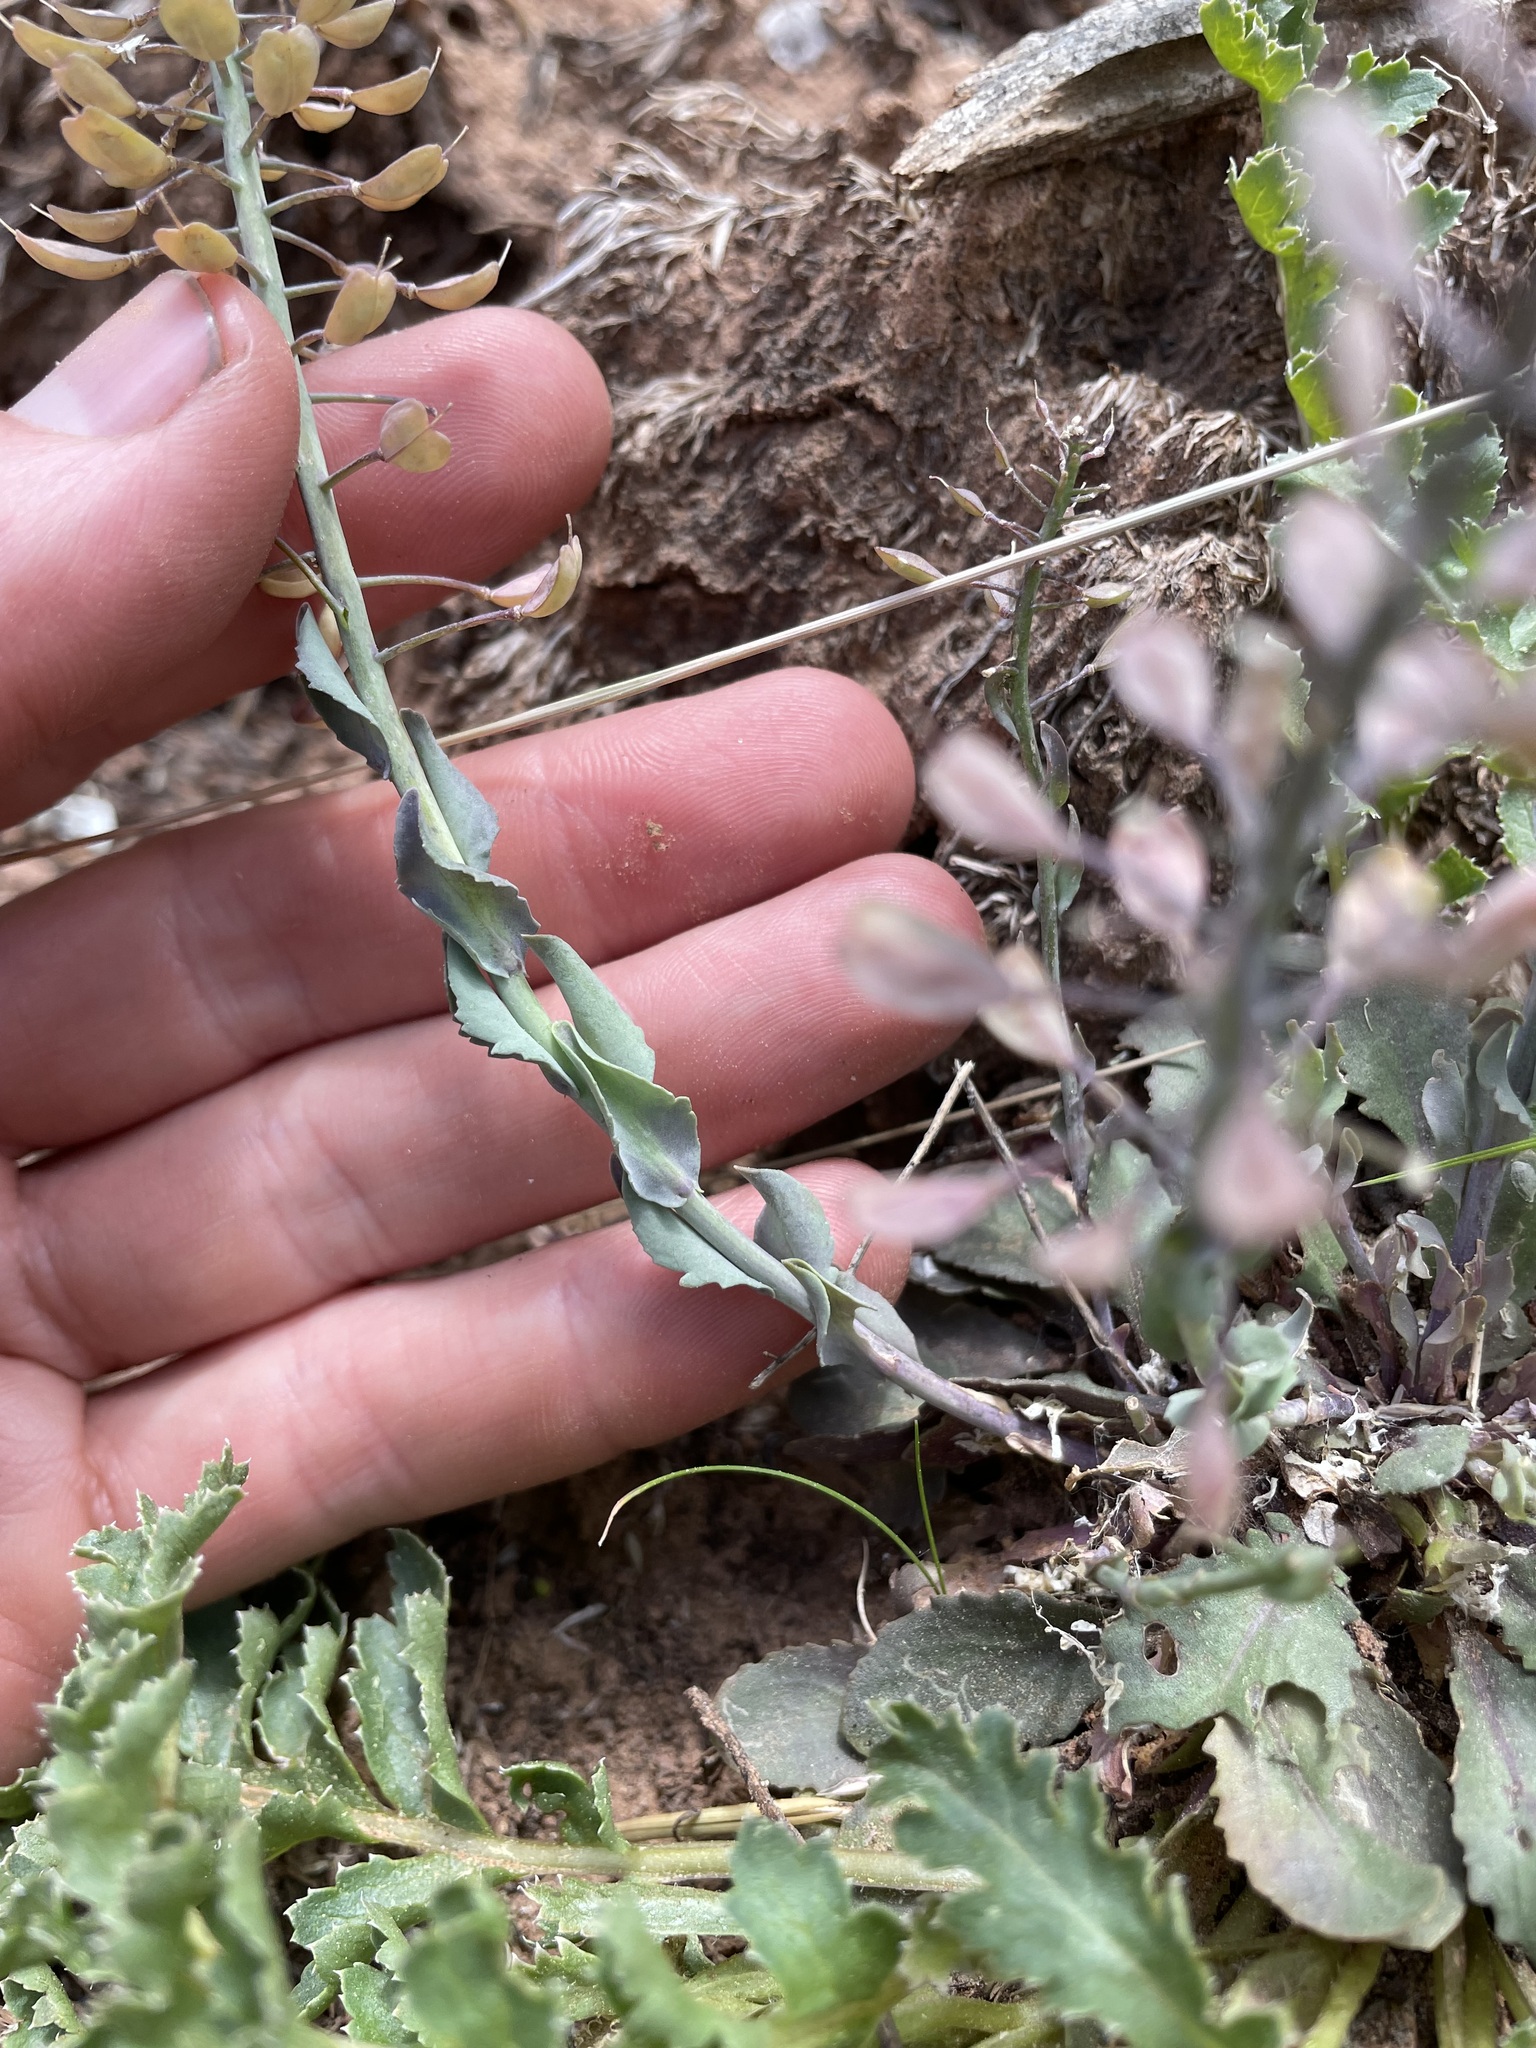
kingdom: Plantae
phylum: Tracheophyta
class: Magnoliopsida
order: Brassicales
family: Brassicaceae
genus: Noccaea
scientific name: Noccaea fendleri
